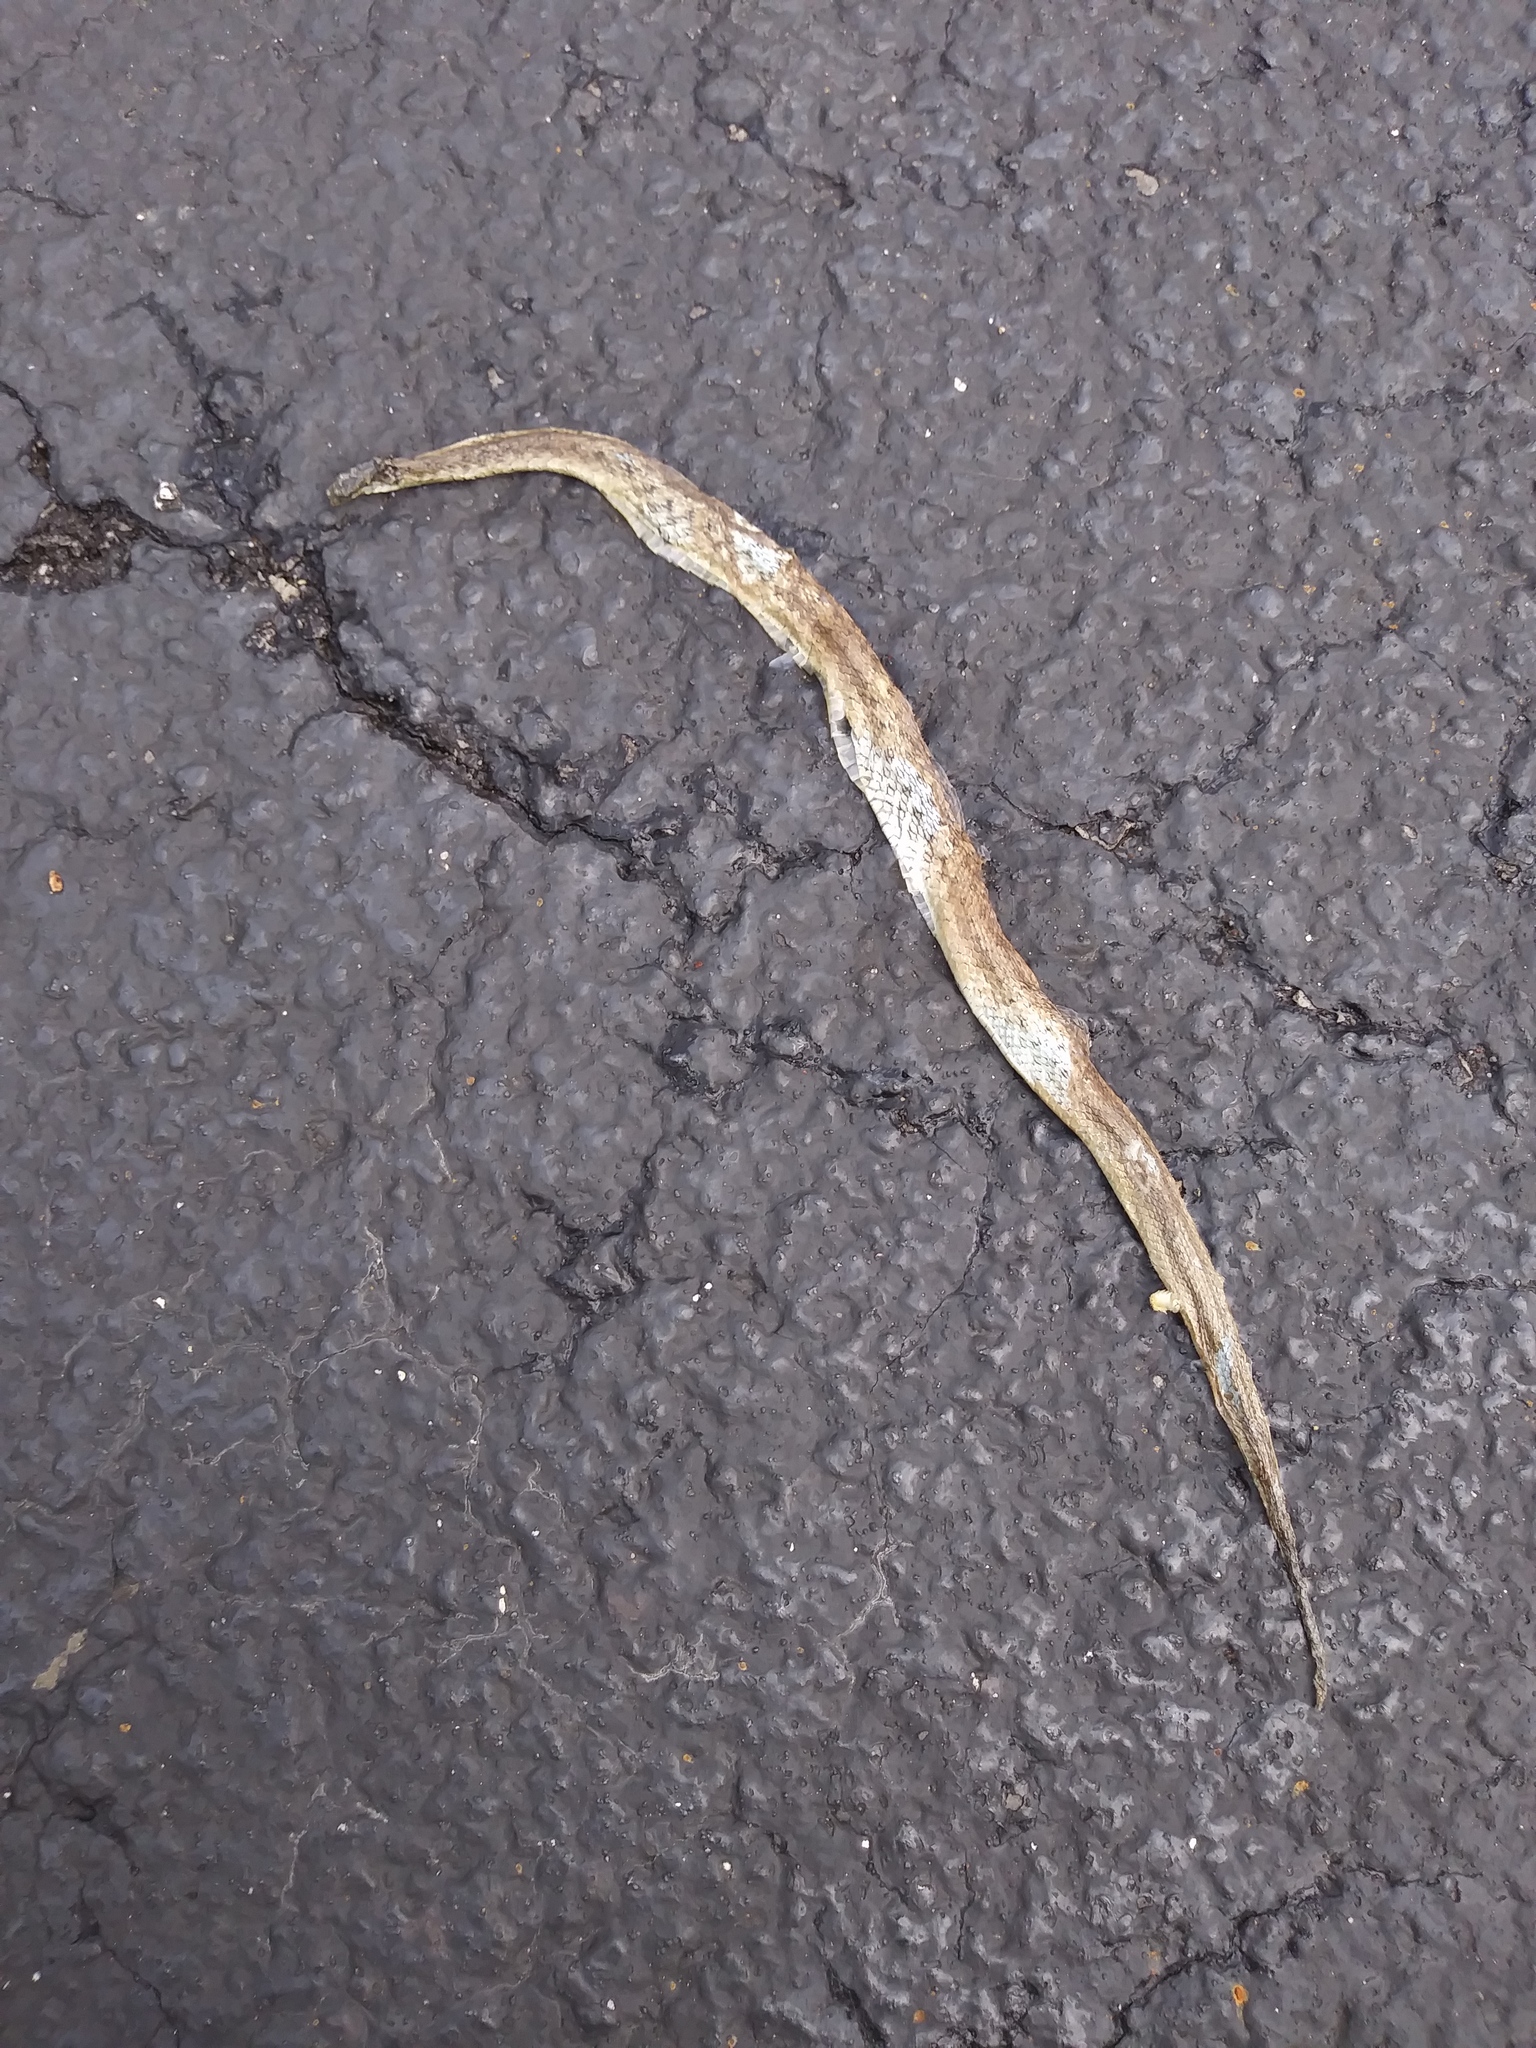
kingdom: Animalia
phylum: Chordata
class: Squamata
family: Colubridae
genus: Storeria
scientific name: Storeria dekayi
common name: (dekay’s) brown snake
